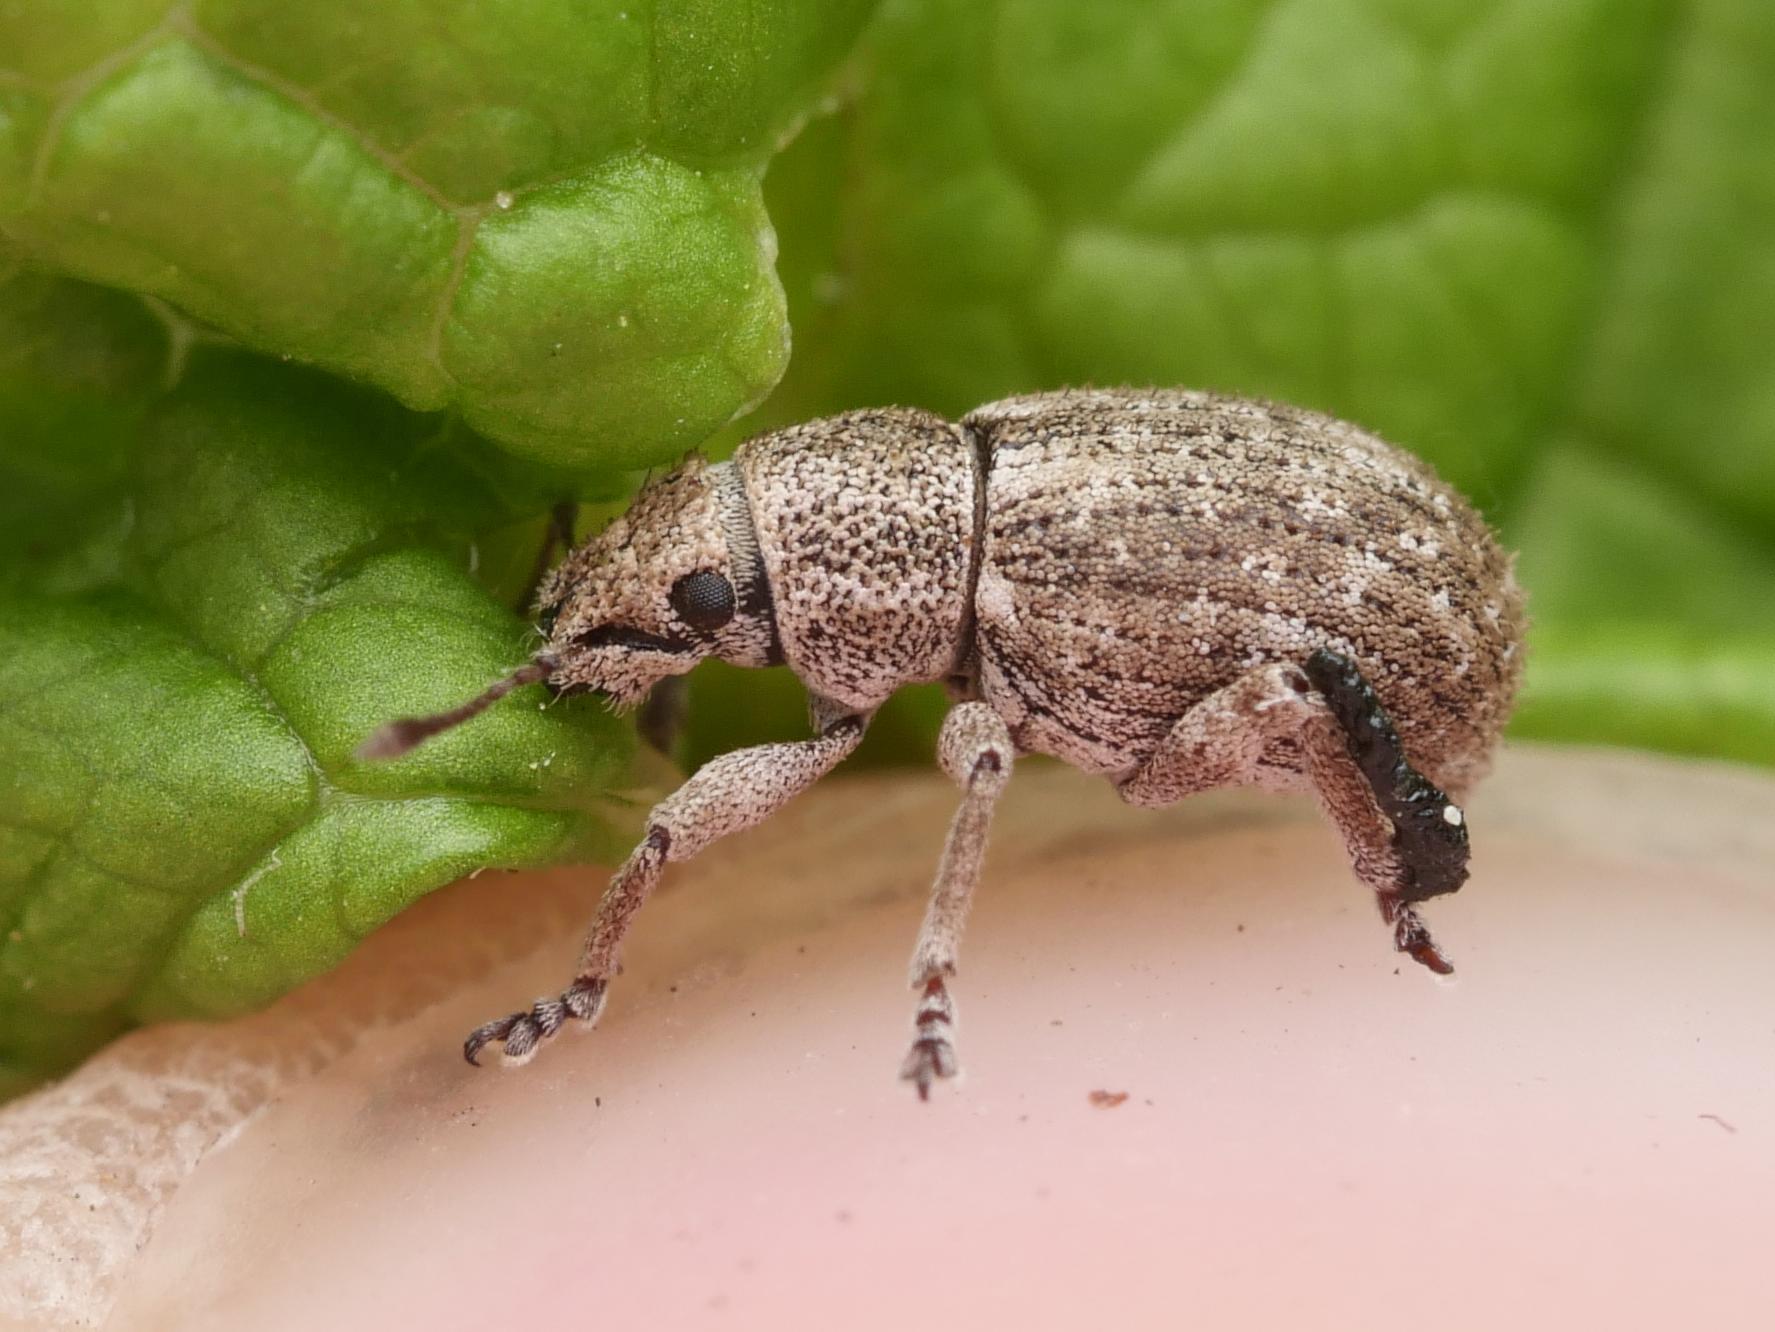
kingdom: Animalia
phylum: Arthropoda
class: Insecta
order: Coleoptera
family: Curculionidae
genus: Strophosoma
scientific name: Strophosoma capitatum
